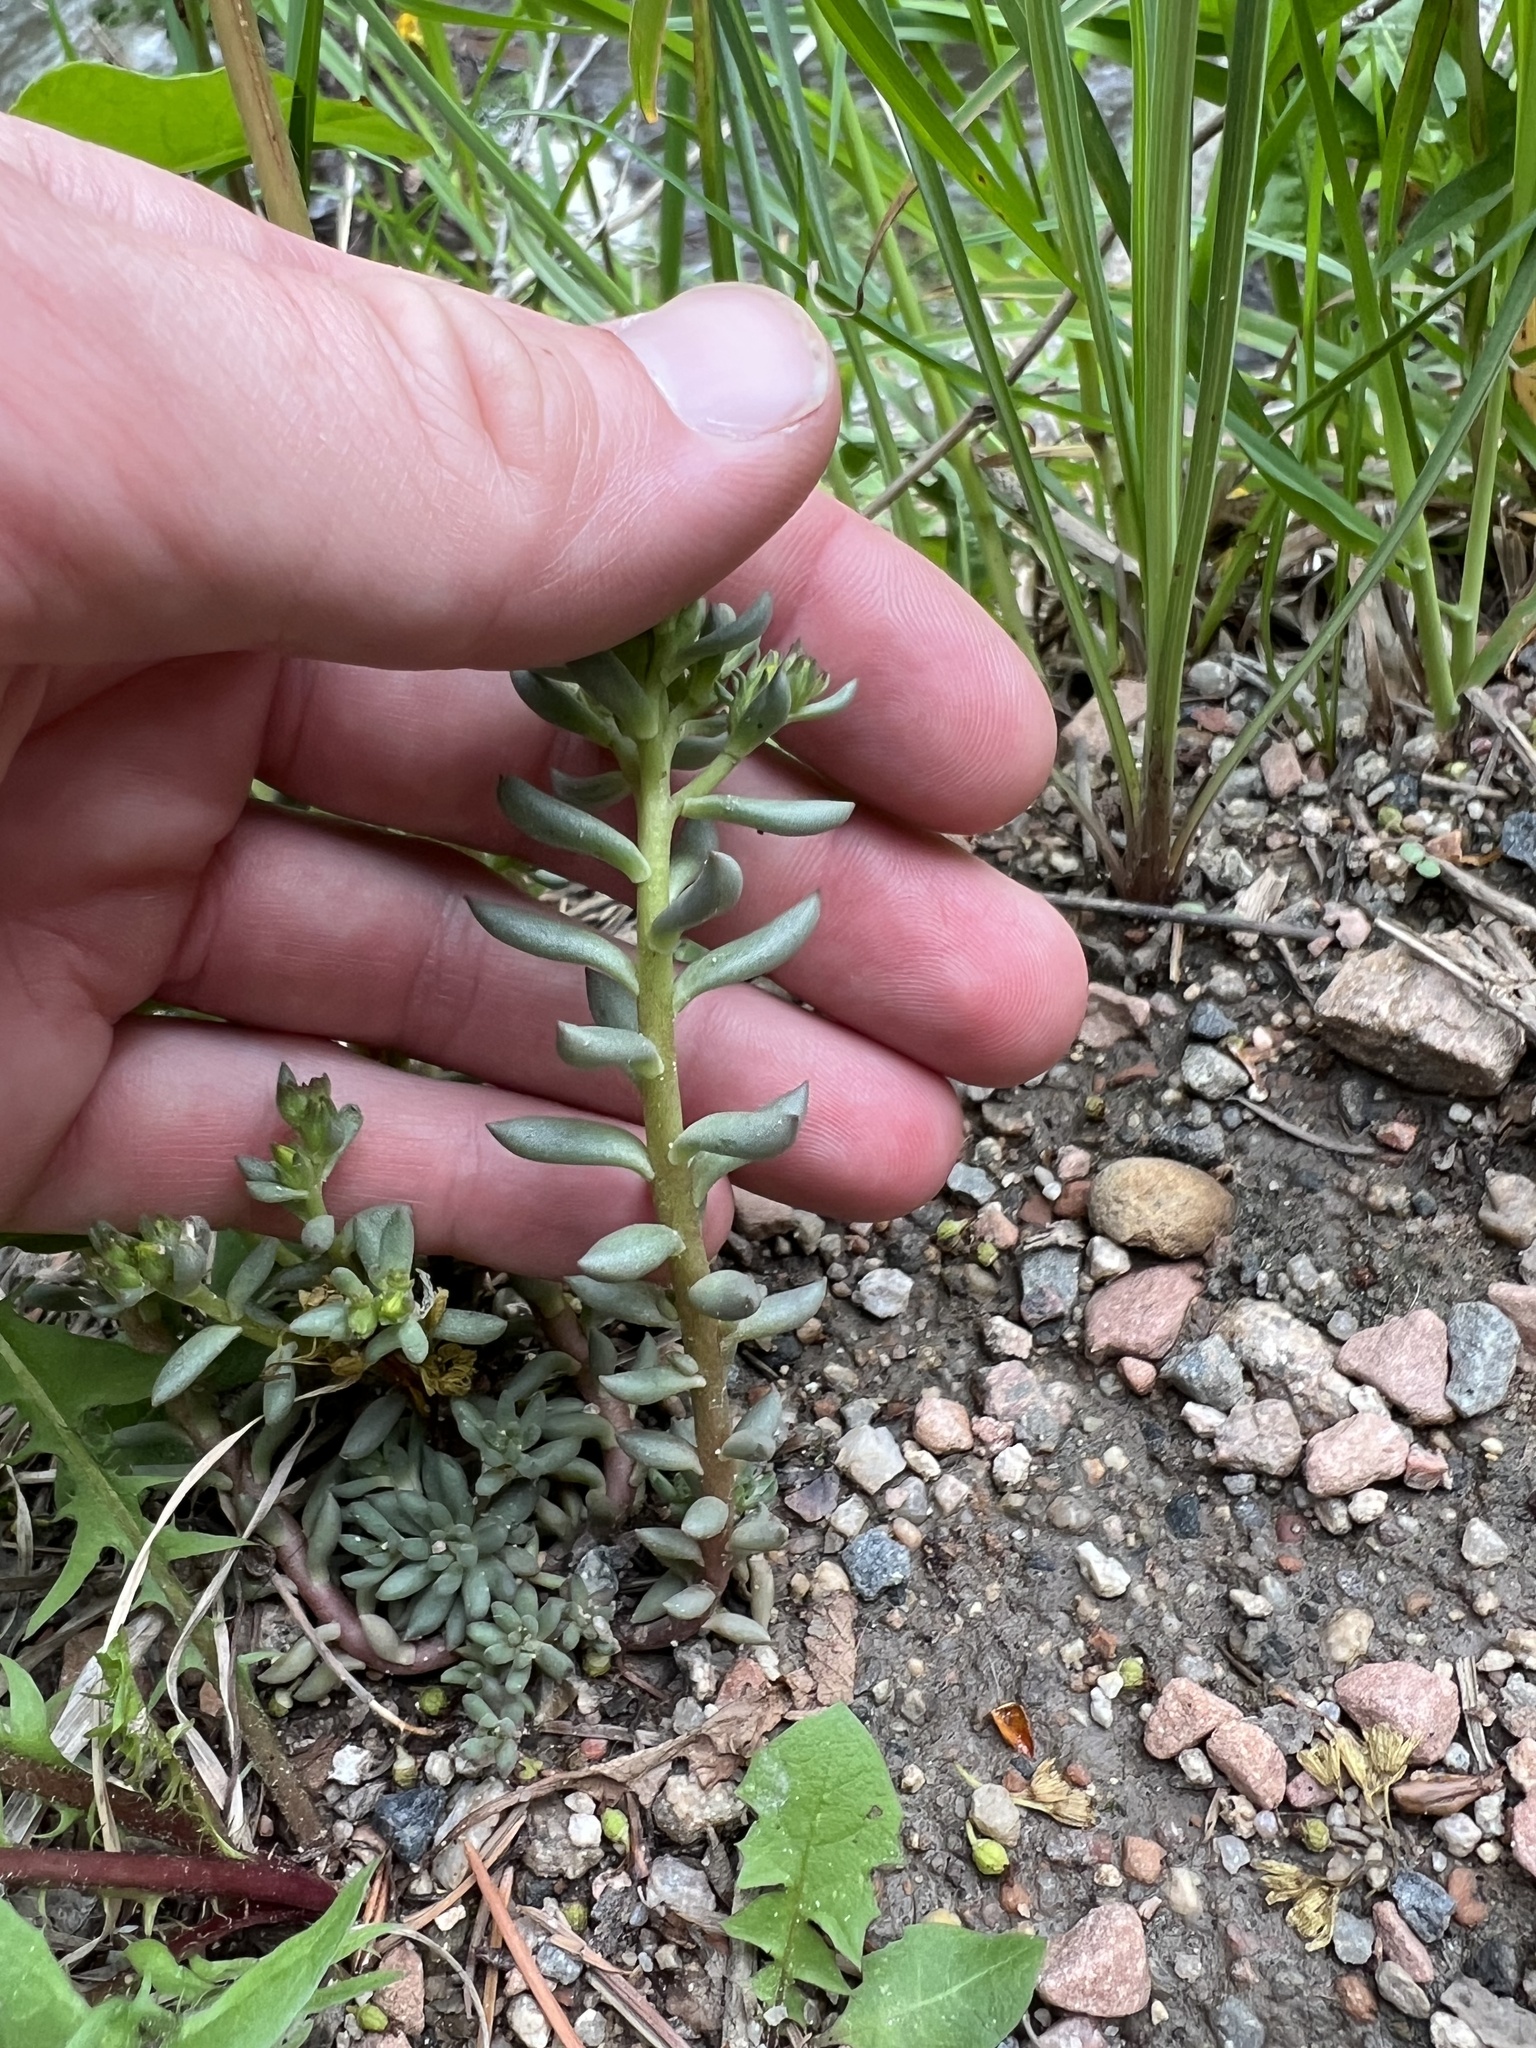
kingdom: Plantae
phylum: Tracheophyta
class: Magnoliopsida
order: Saxifragales
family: Crassulaceae
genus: Sedum
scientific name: Sedum lanceolatum
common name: Common stonecrop
